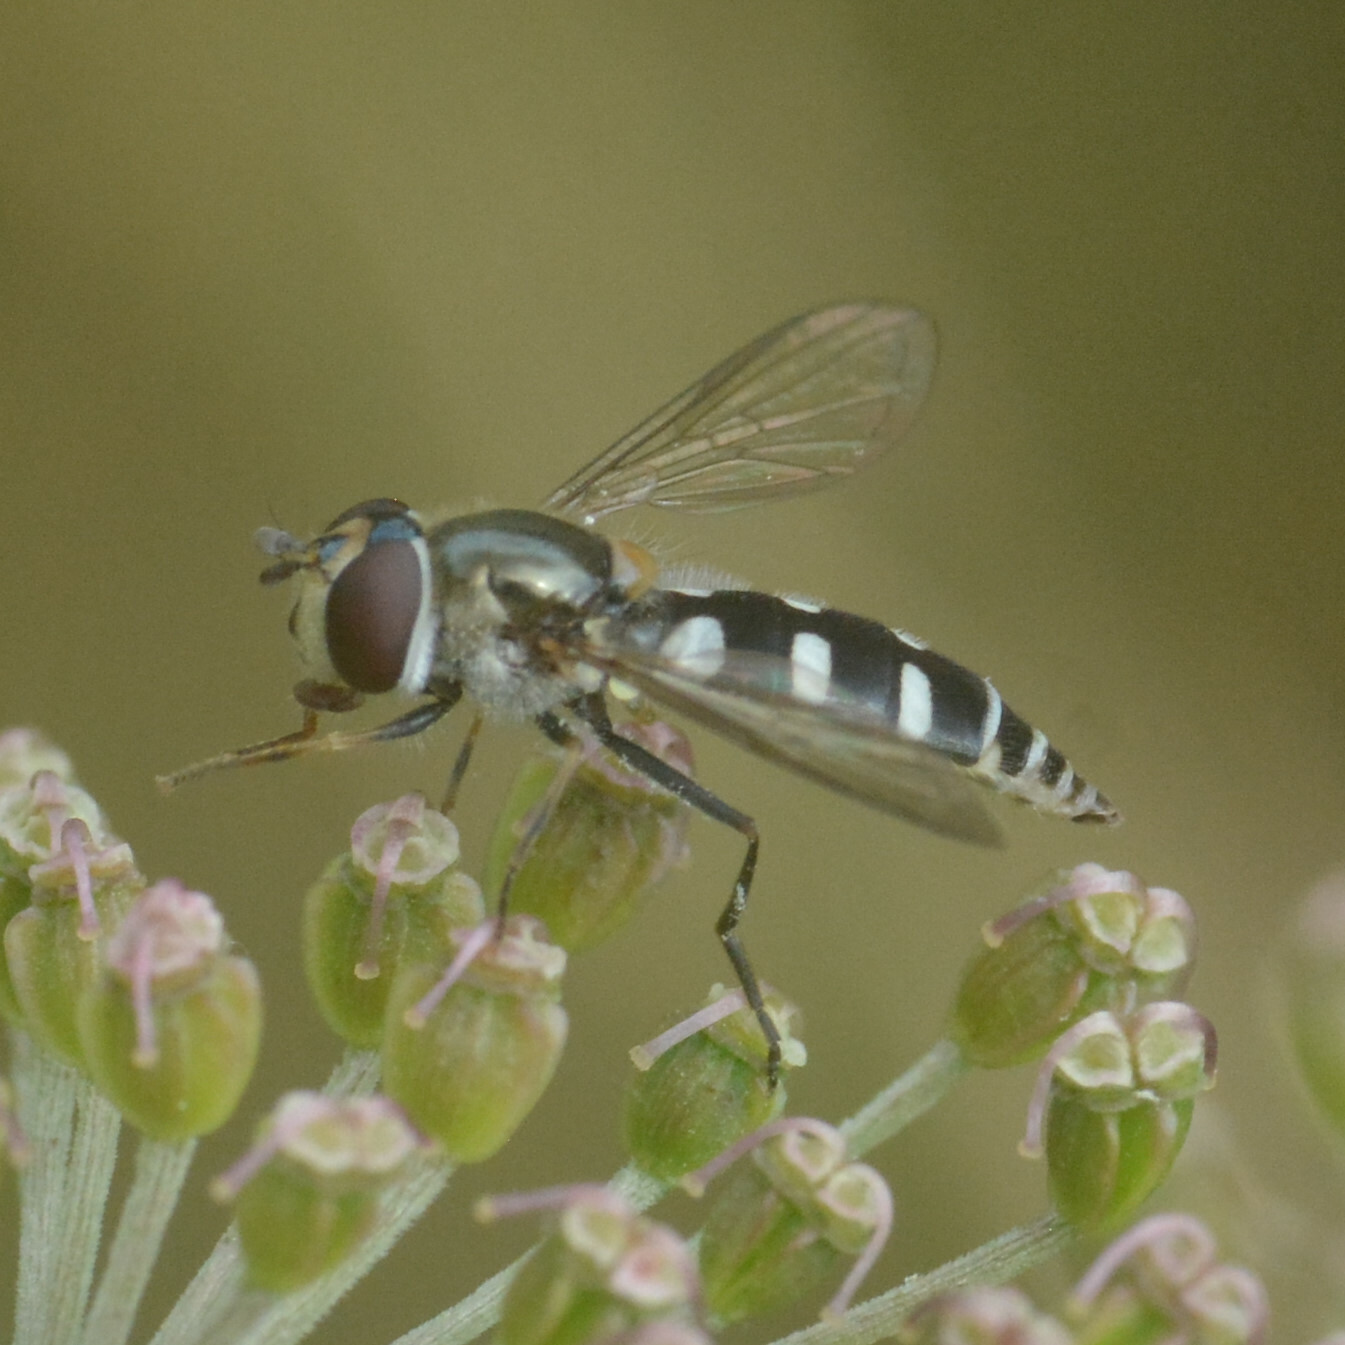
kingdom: Animalia
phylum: Arthropoda
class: Insecta
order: Diptera
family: Syrphidae
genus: Melangyna
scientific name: Melangyna umbellatarum
